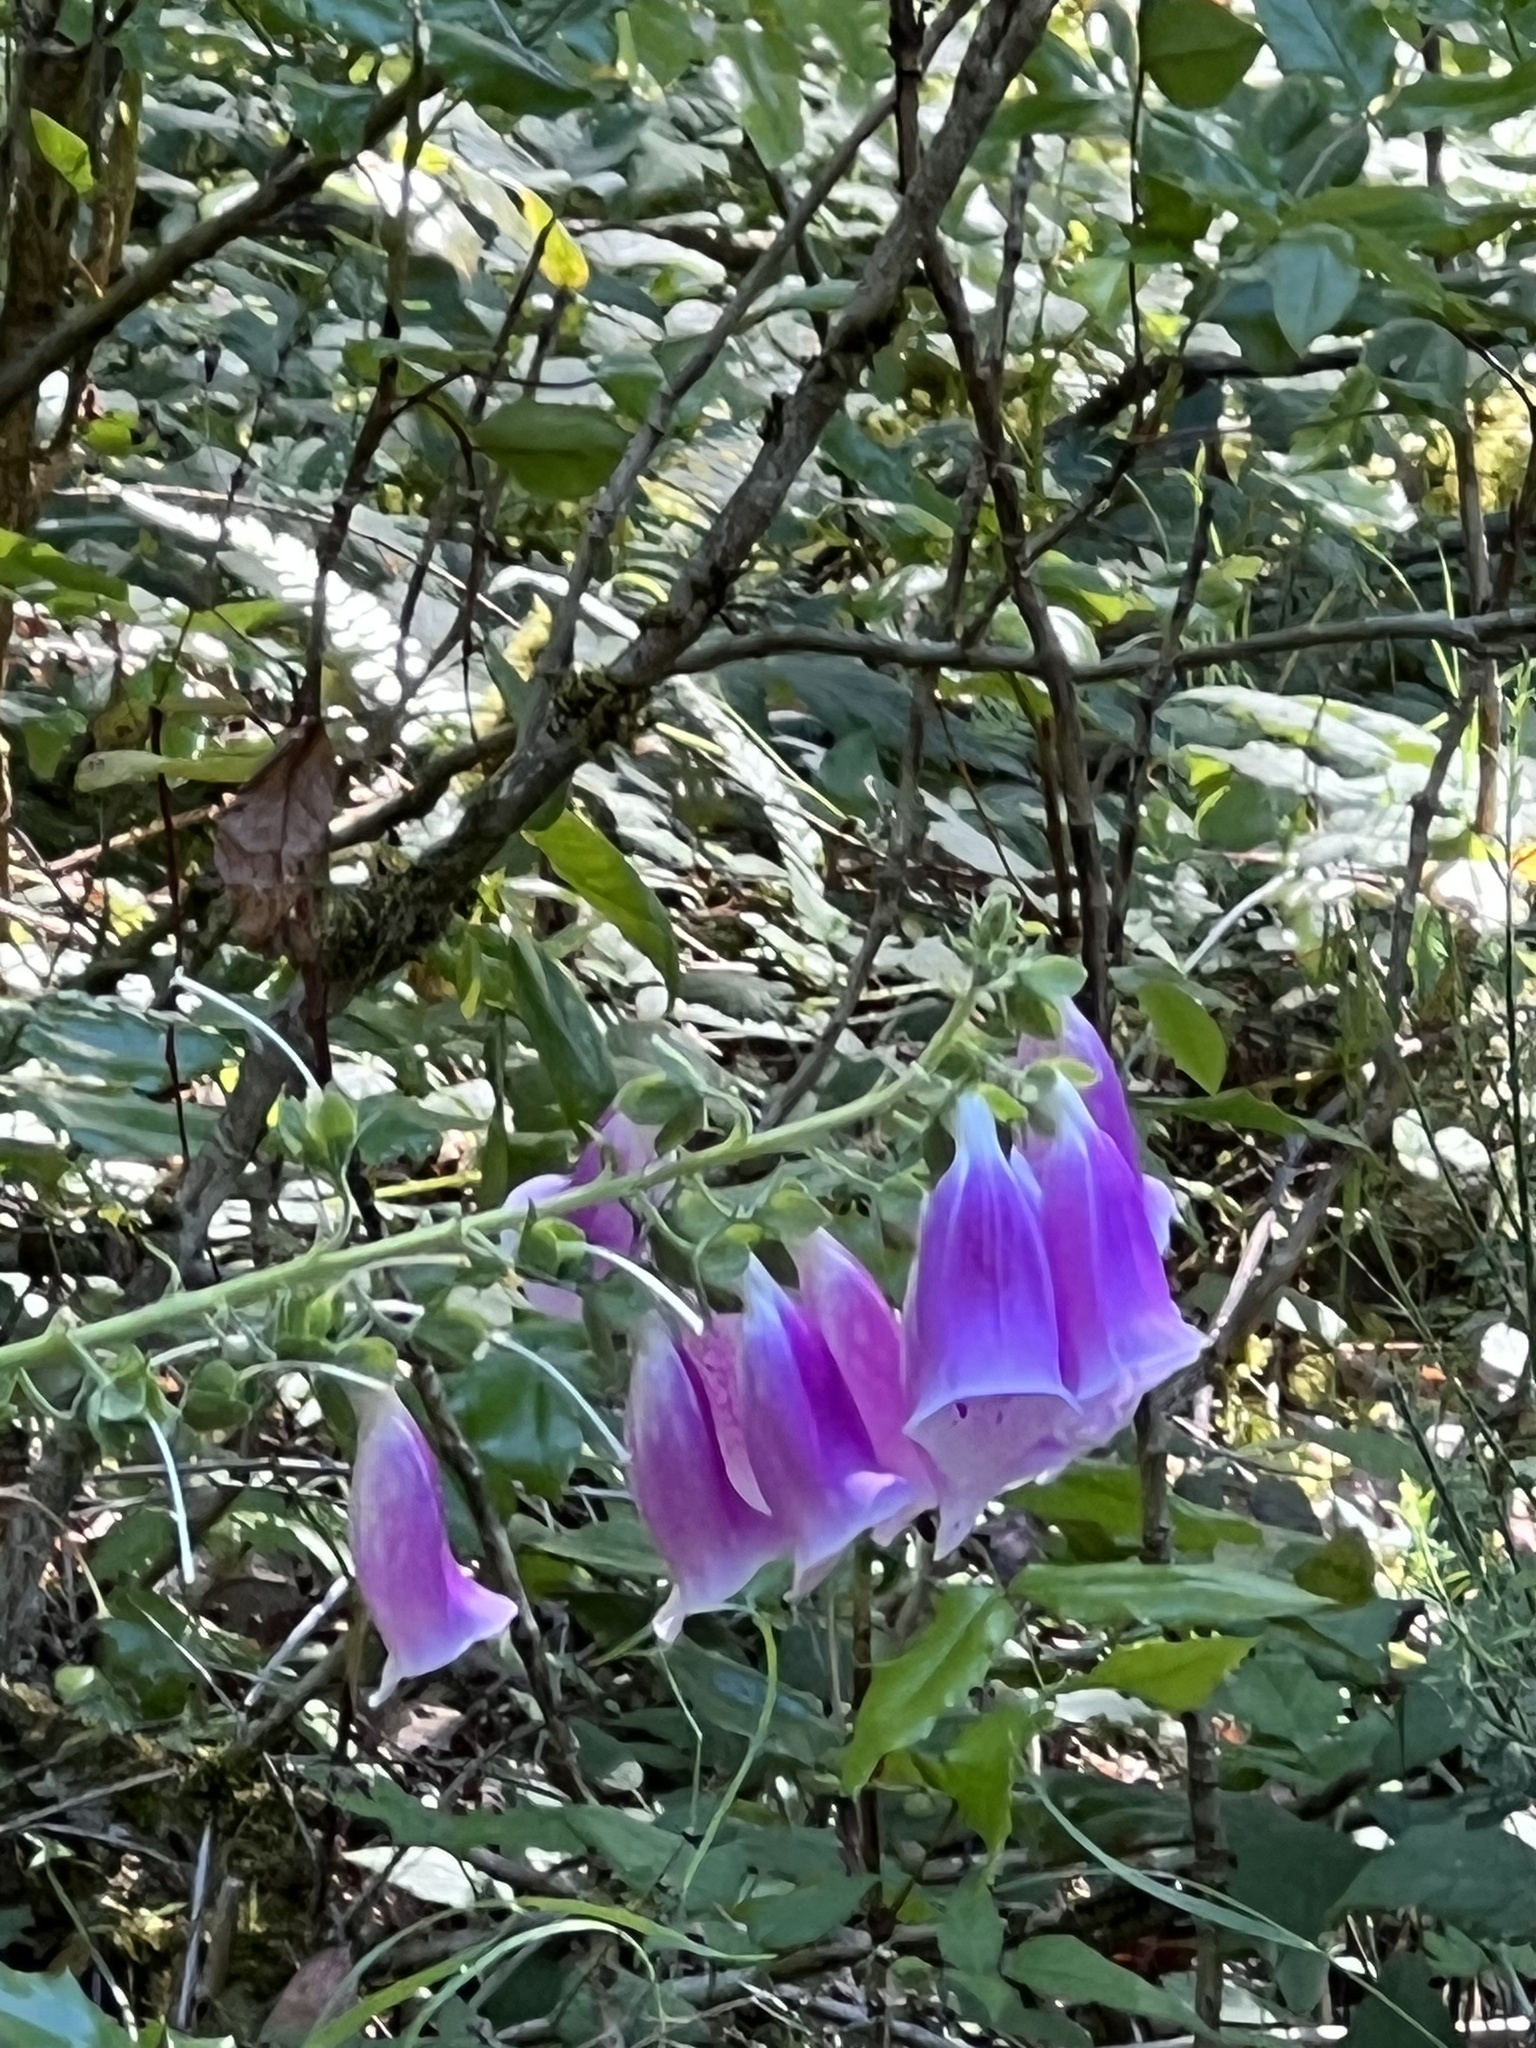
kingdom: Plantae
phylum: Tracheophyta
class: Magnoliopsida
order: Lamiales
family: Plantaginaceae
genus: Digitalis
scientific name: Digitalis purpurea
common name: Foxglove
